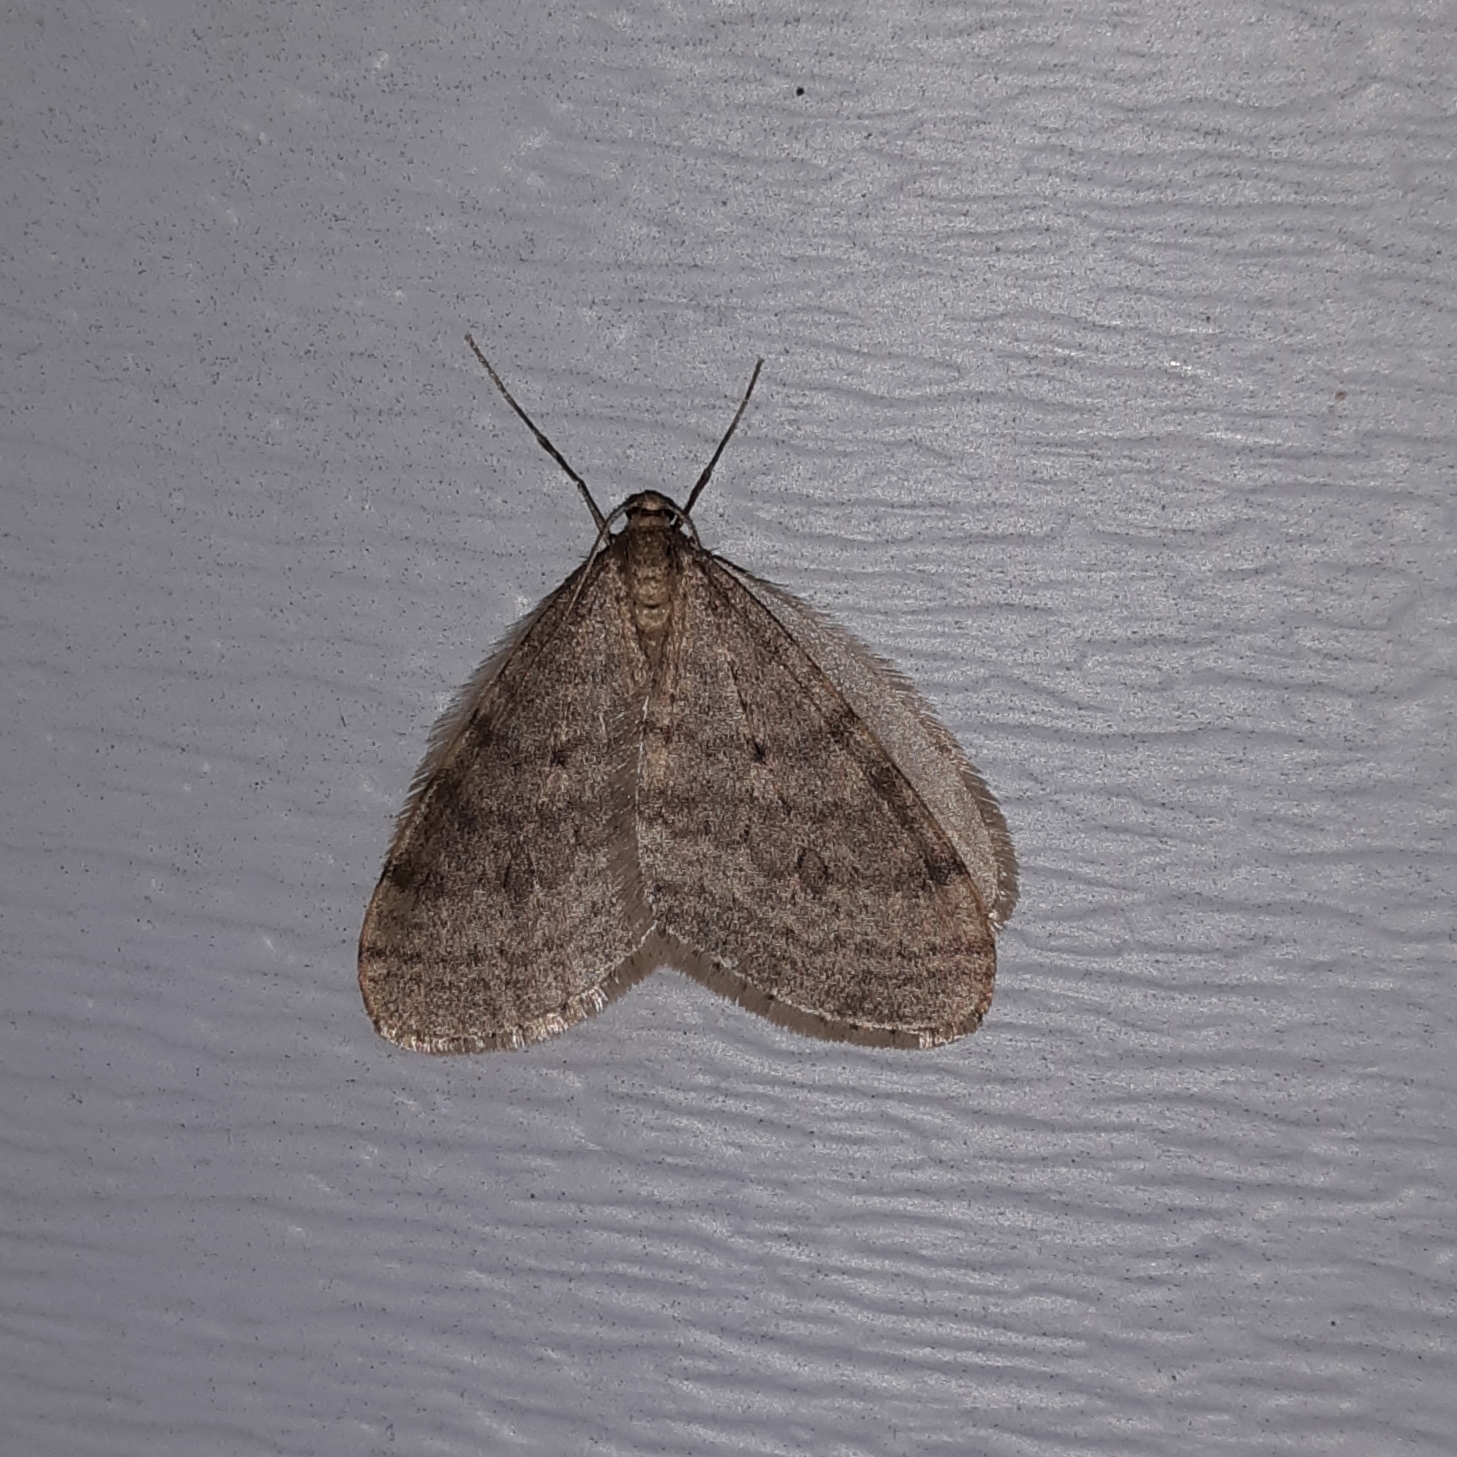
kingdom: Animalia
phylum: Arthropoda
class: Insecta
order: Lepidoptera
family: Geometridae
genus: Operophtera
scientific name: Operophtera bruceata
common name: Bruce spanworm
